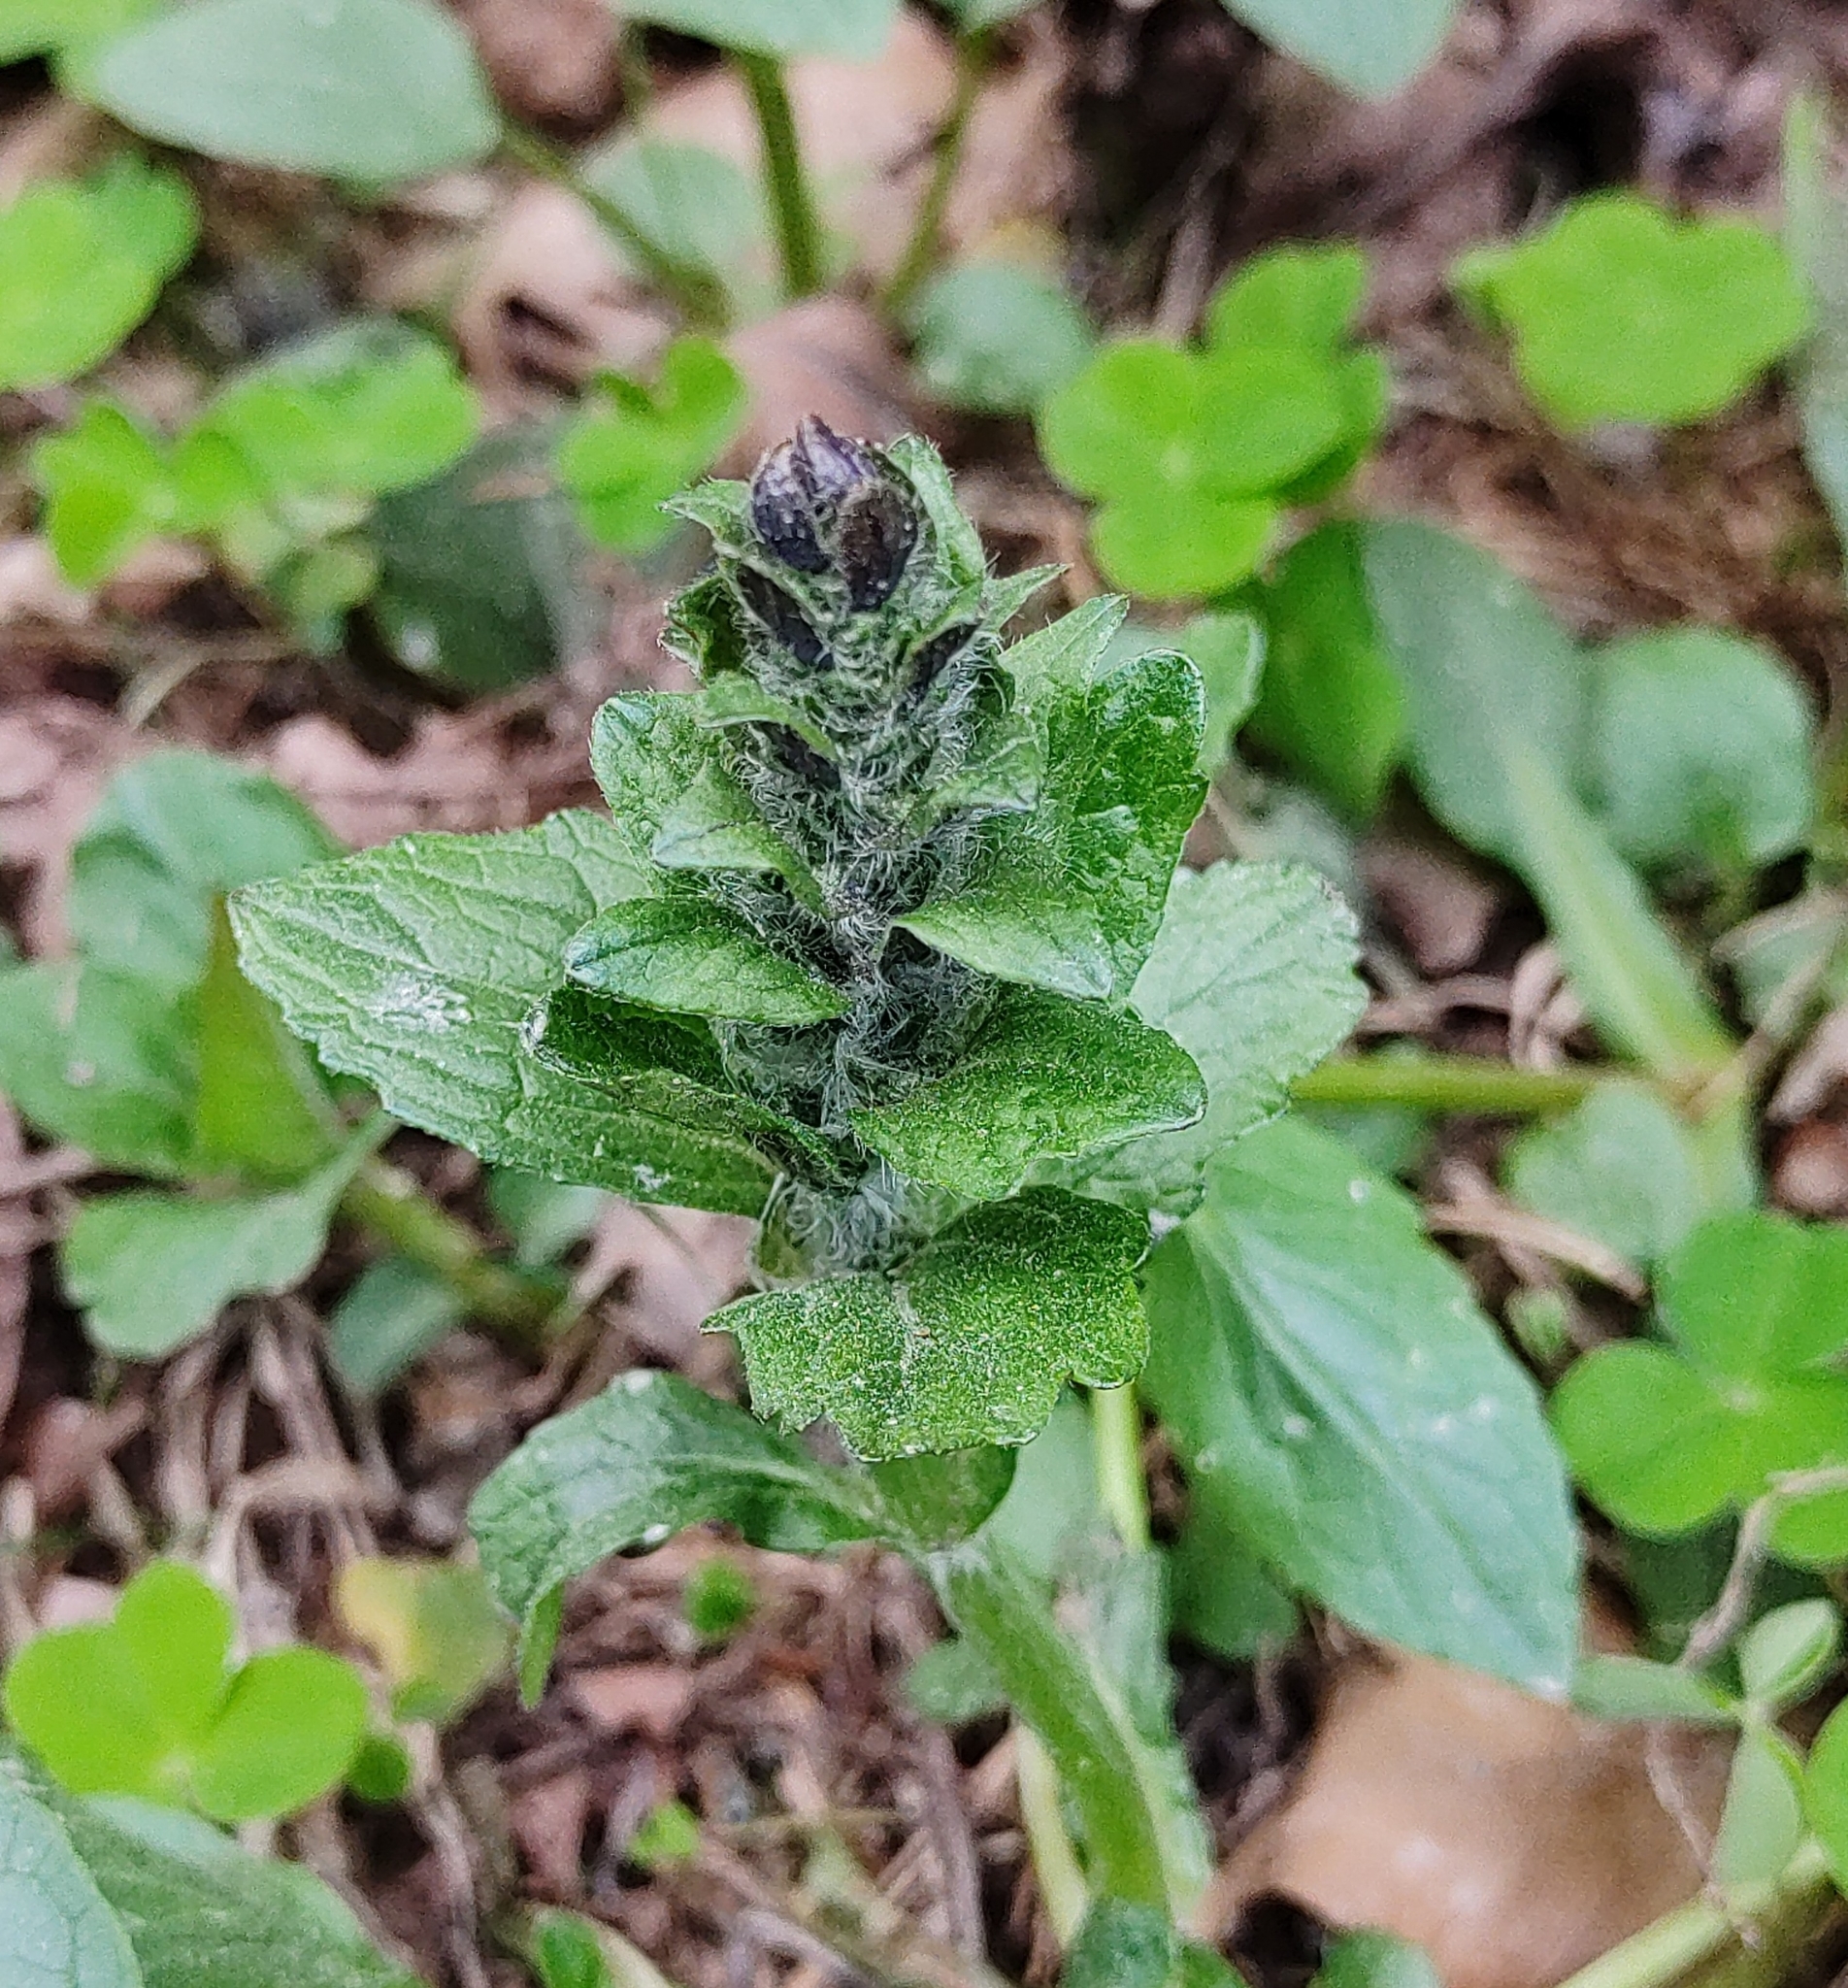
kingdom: Plantae
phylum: Tracheophyta
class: Magnoliopsida
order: Lamiales
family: Lamiaceae
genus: Ajuga
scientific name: Ajuga reptans
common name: Bugle
